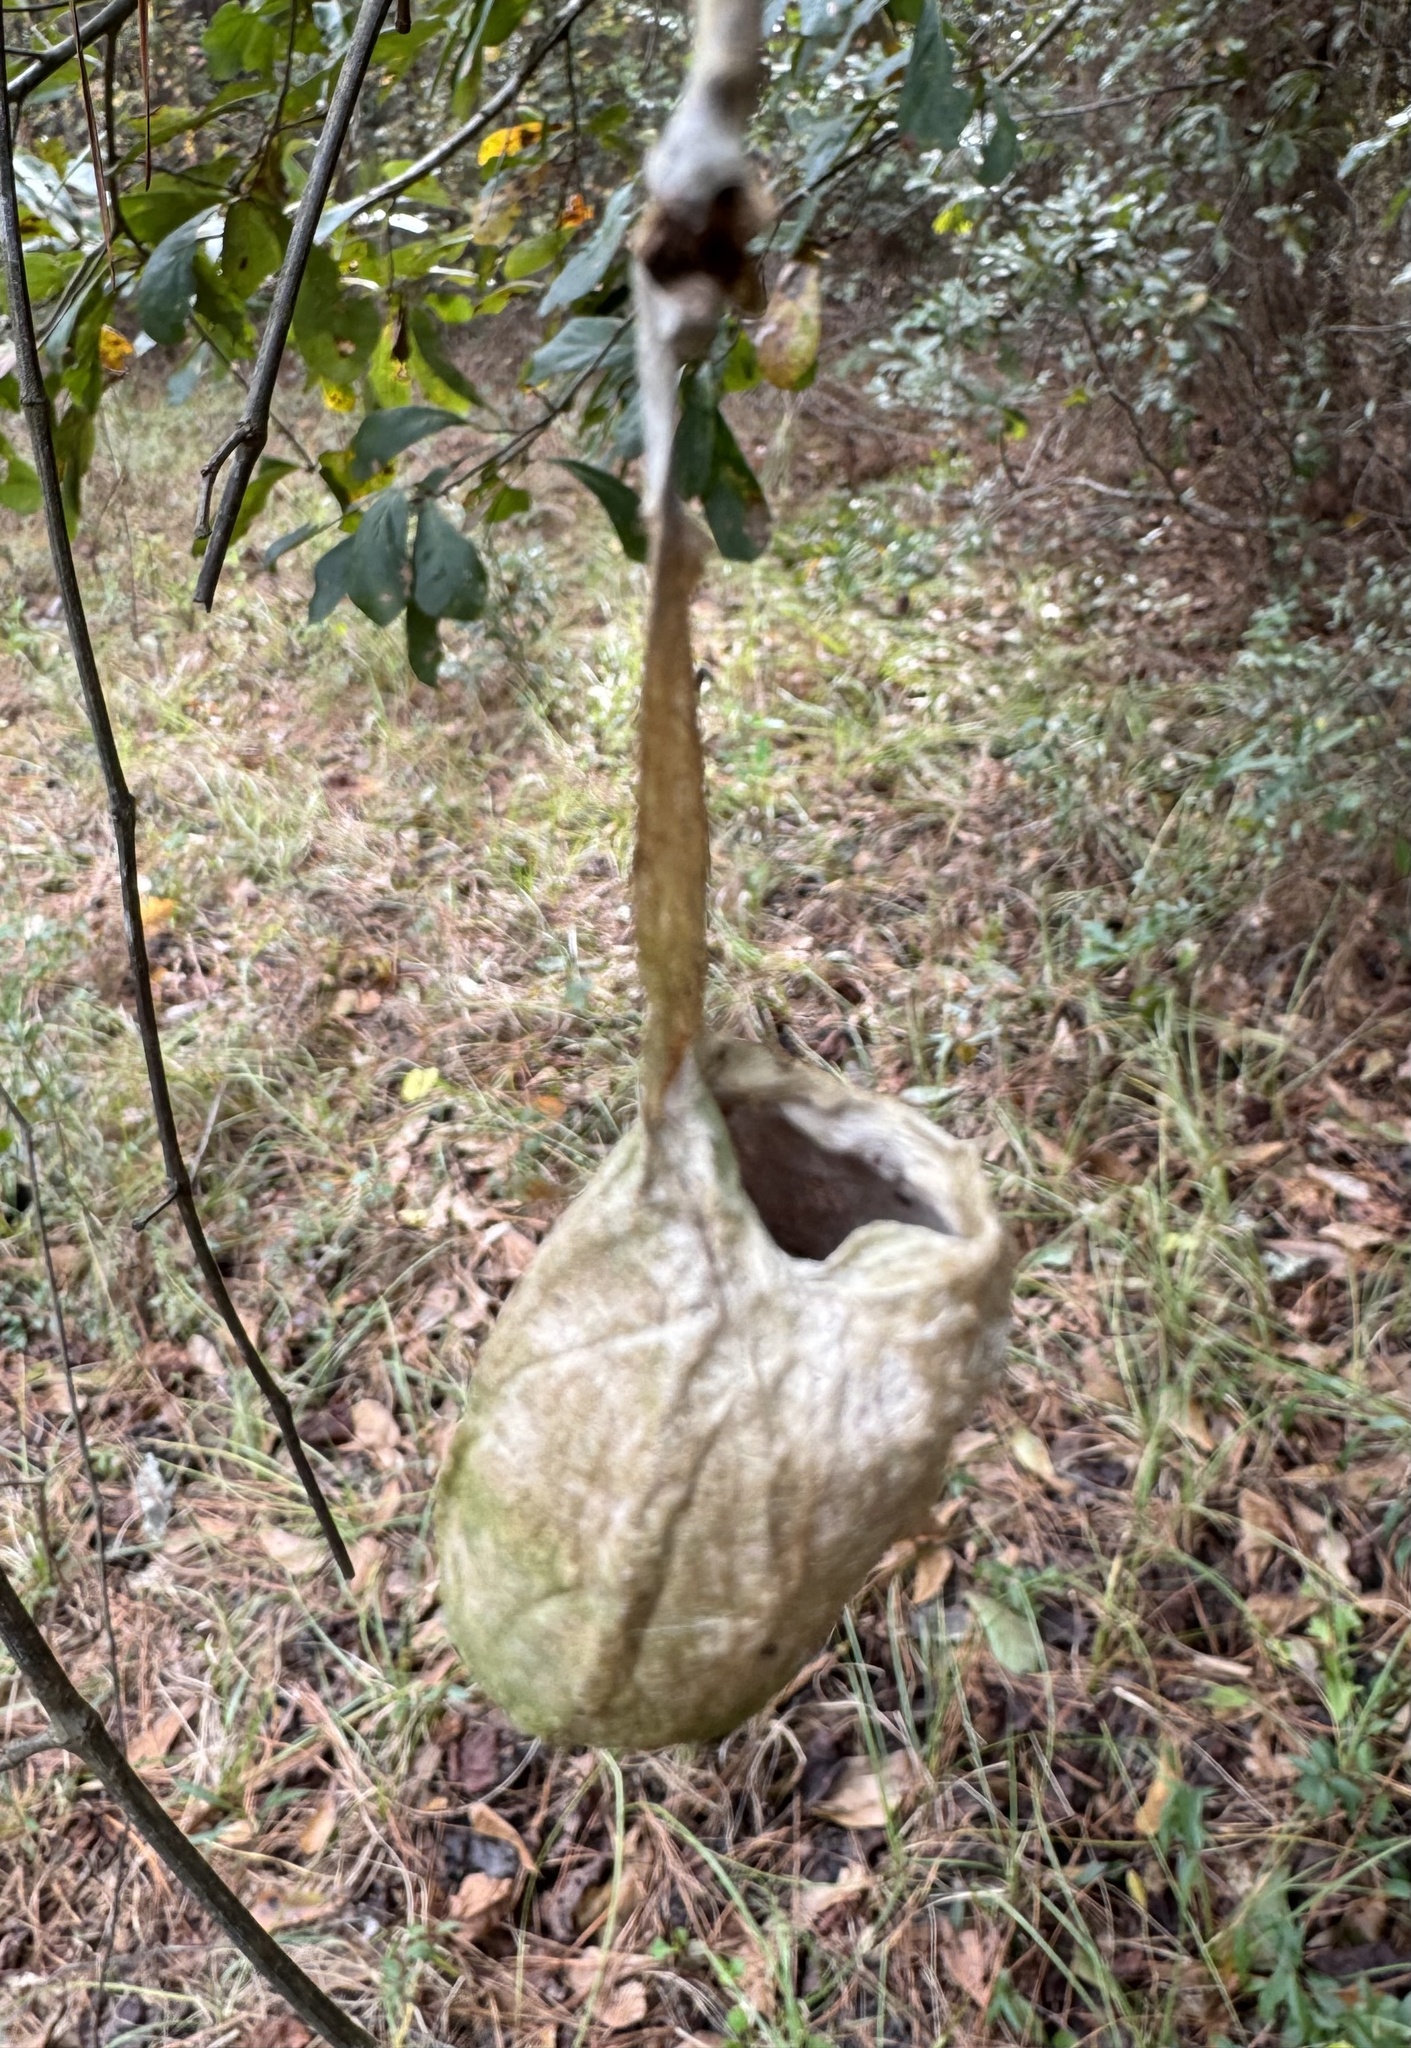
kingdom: Animalia
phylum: Arthropoda
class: Insecta
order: Lepidoptera
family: Saturniidae
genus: Antheraea
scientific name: Antheraea polyphemus
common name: Polyphemus moth
